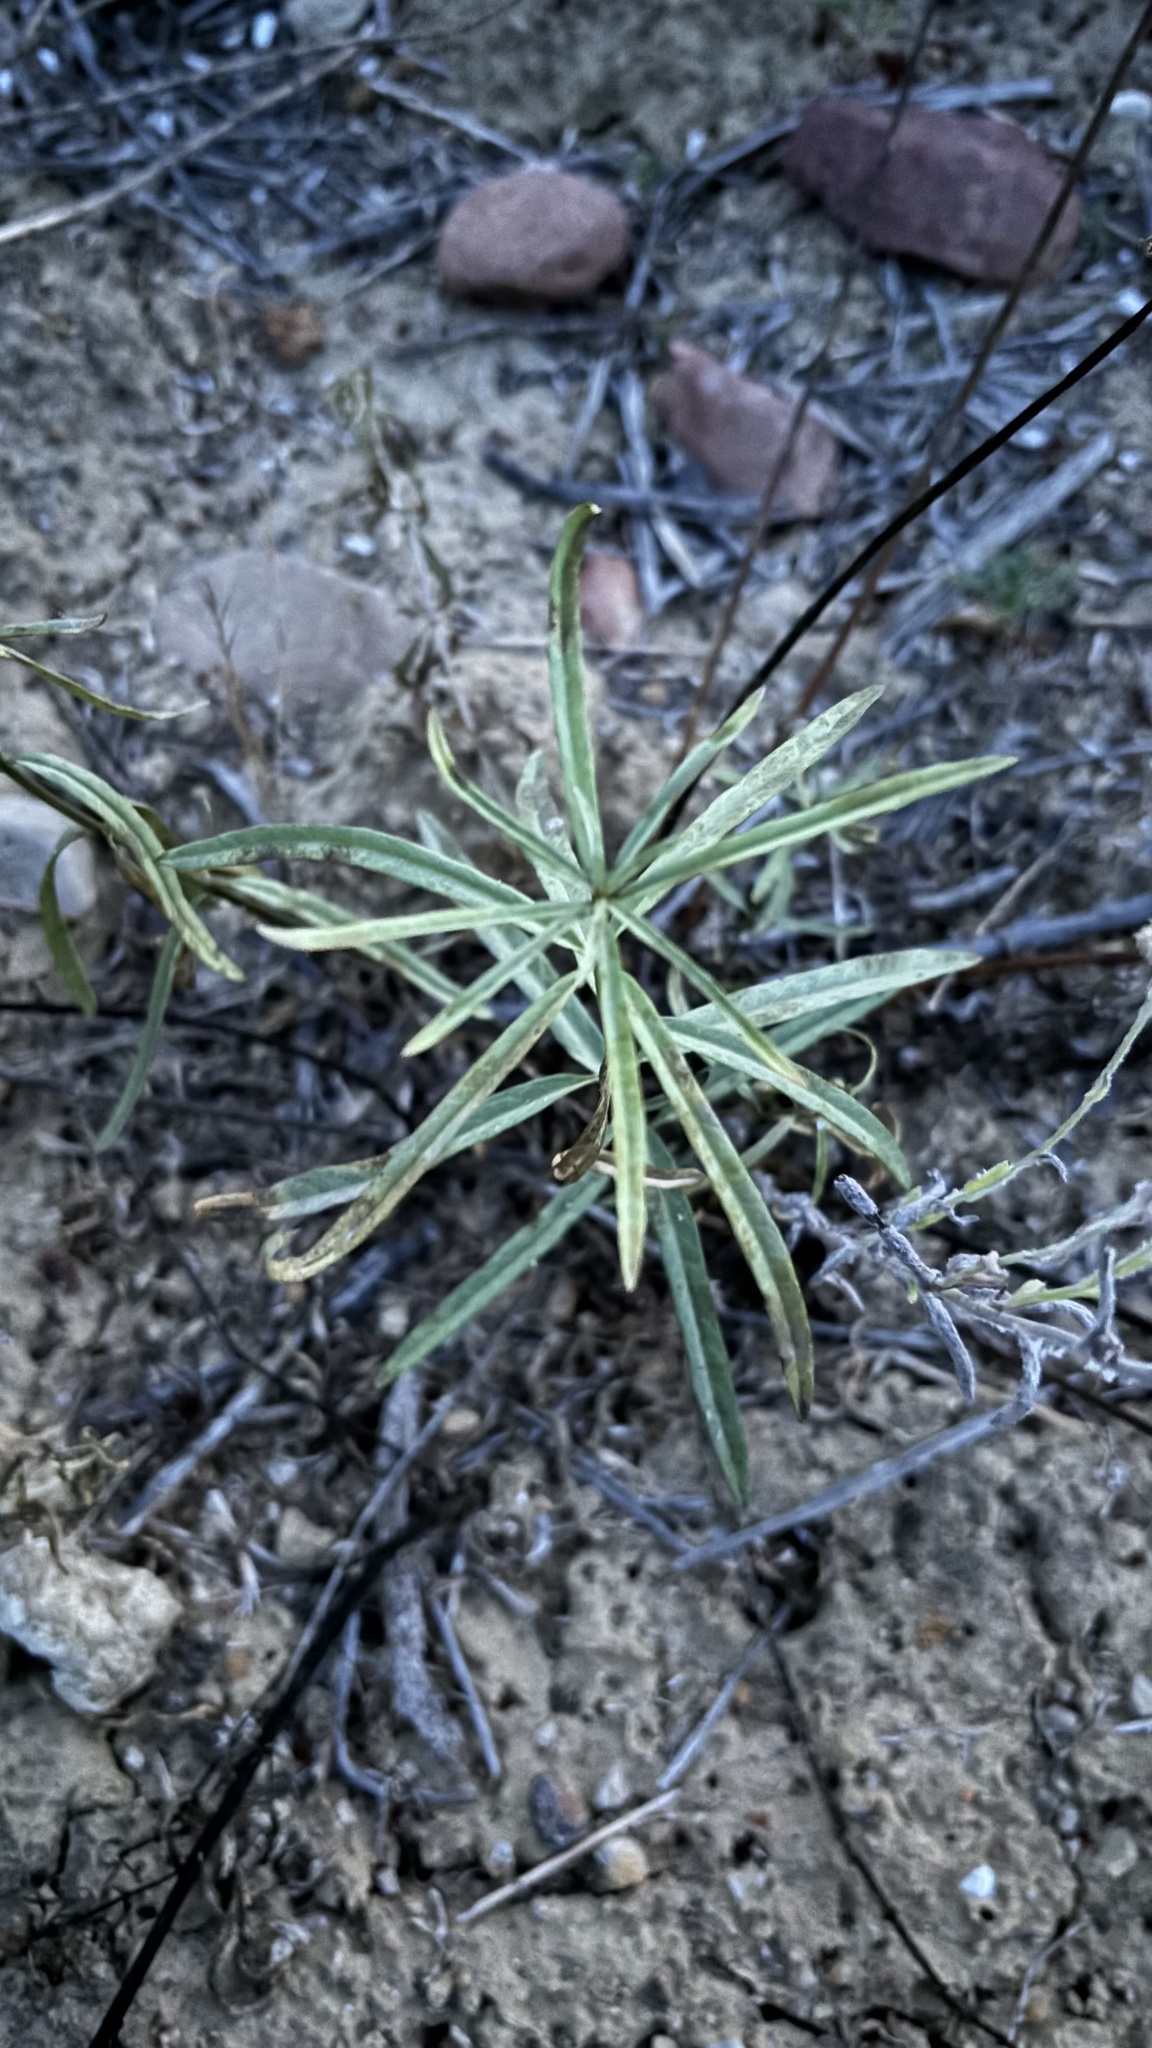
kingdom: Plantae
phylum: Tracheophyta
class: Magnoliopsida
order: Gentianales
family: Apocynaceae
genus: Asclepias
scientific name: Asclepias fascicularis
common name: Mexican milkweed
